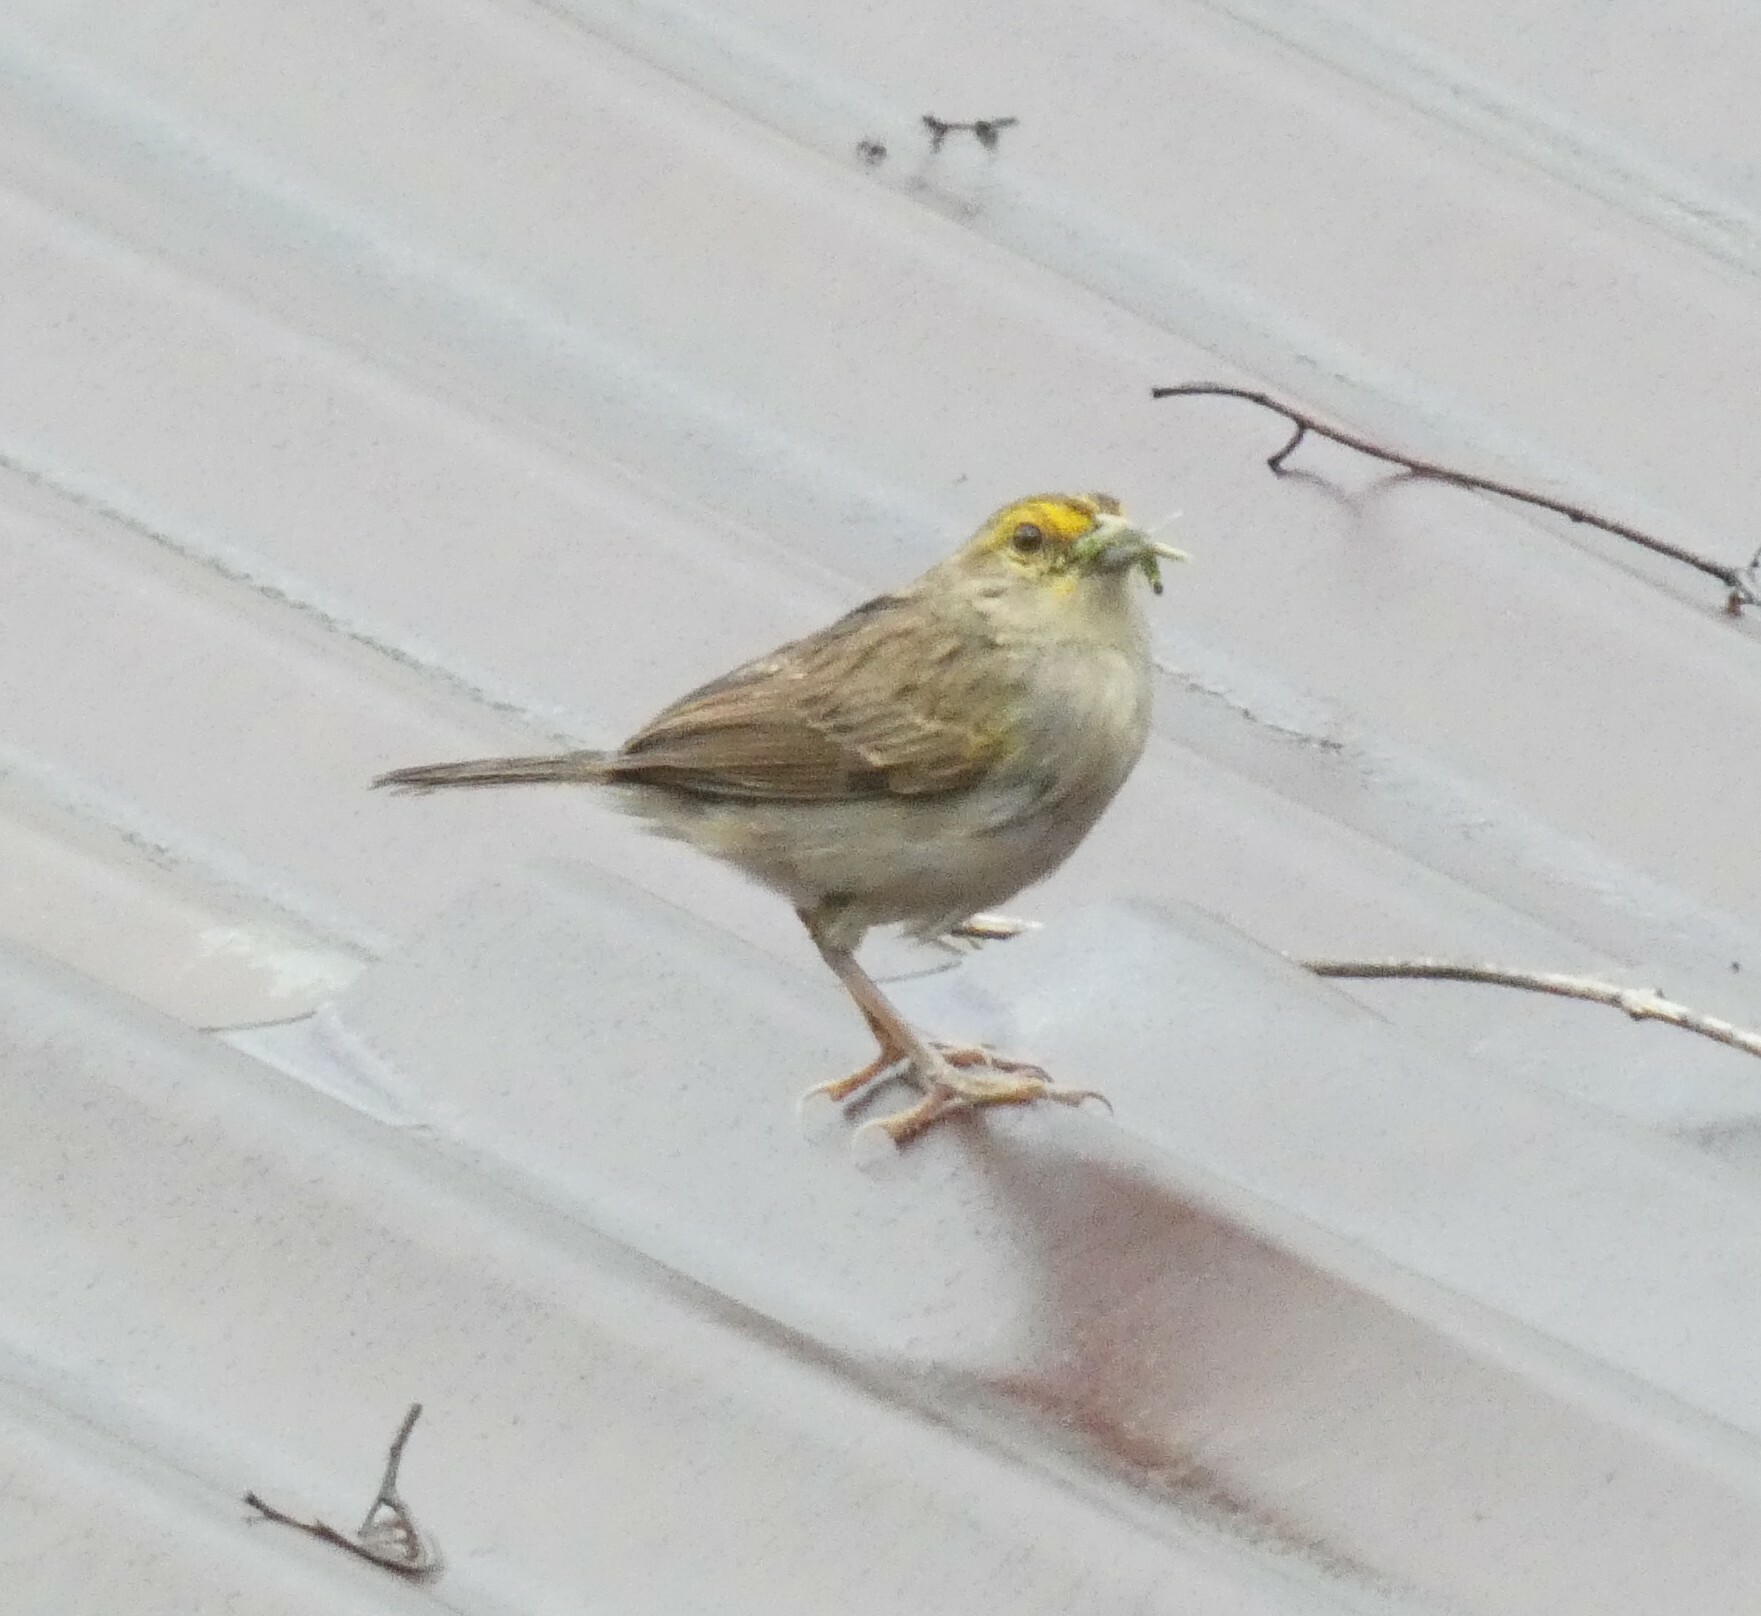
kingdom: Animalia
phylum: Chordata
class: Aves
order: Passeriformes
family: Passerellidae
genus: Ammodramus
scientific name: Ammodramus aurifrons
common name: Yellow-browed sparrow
